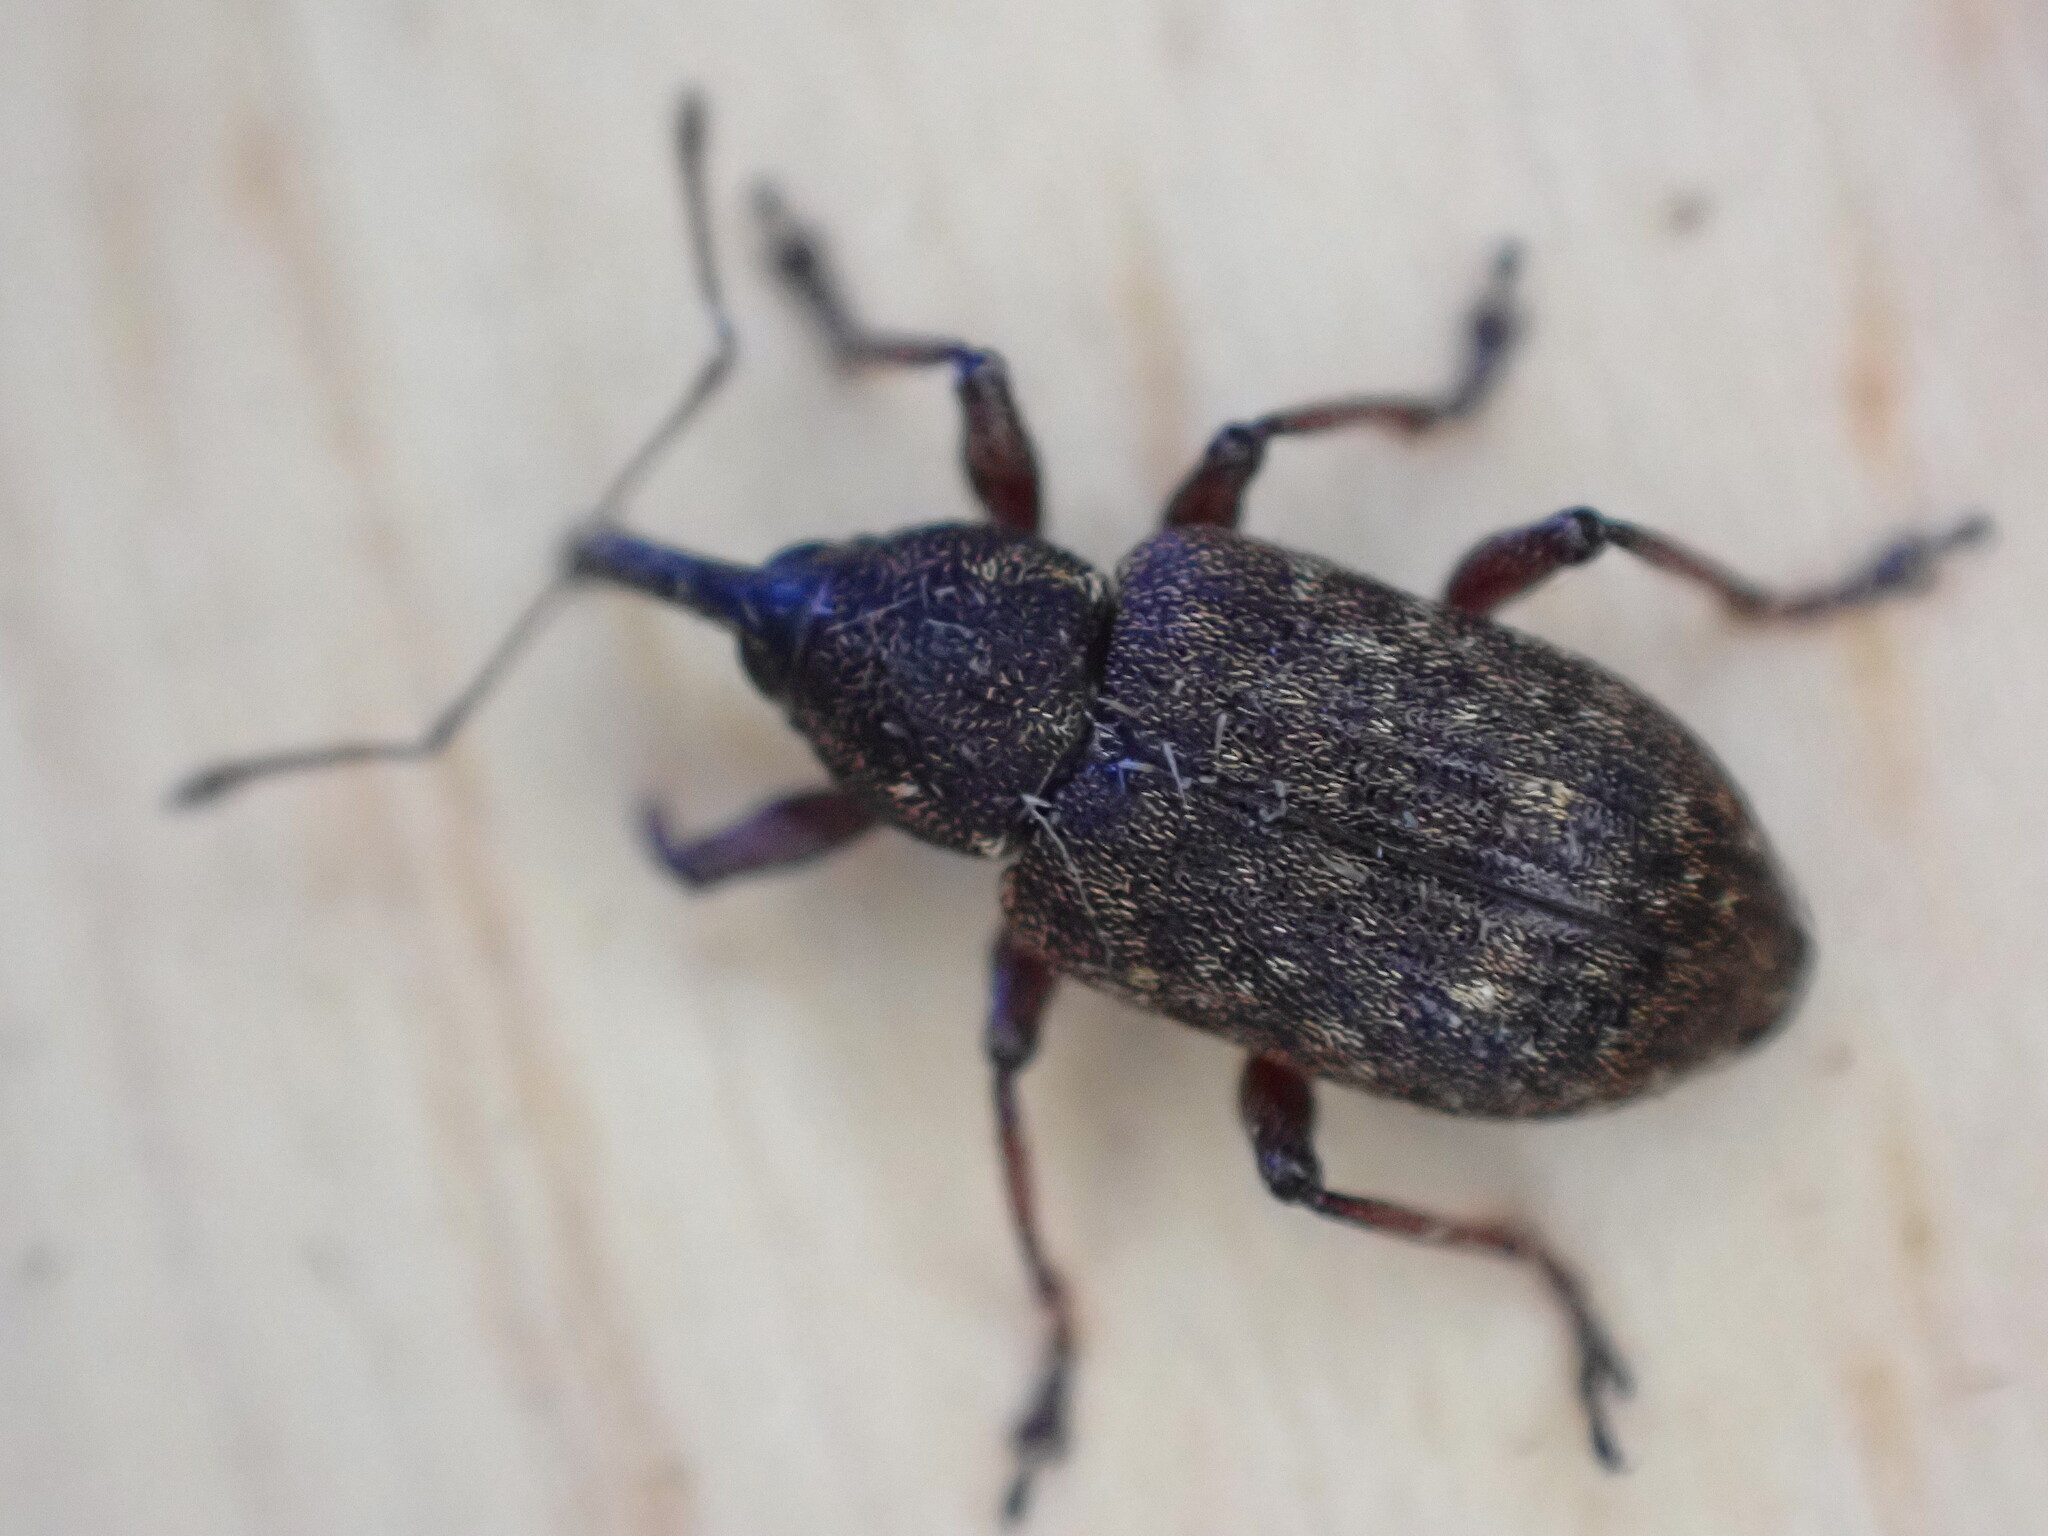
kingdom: Animalia
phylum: Arthropoda
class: Insecta
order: Coleoptera
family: Brachyceridae
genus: Notaris
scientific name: Notaris scirpi
